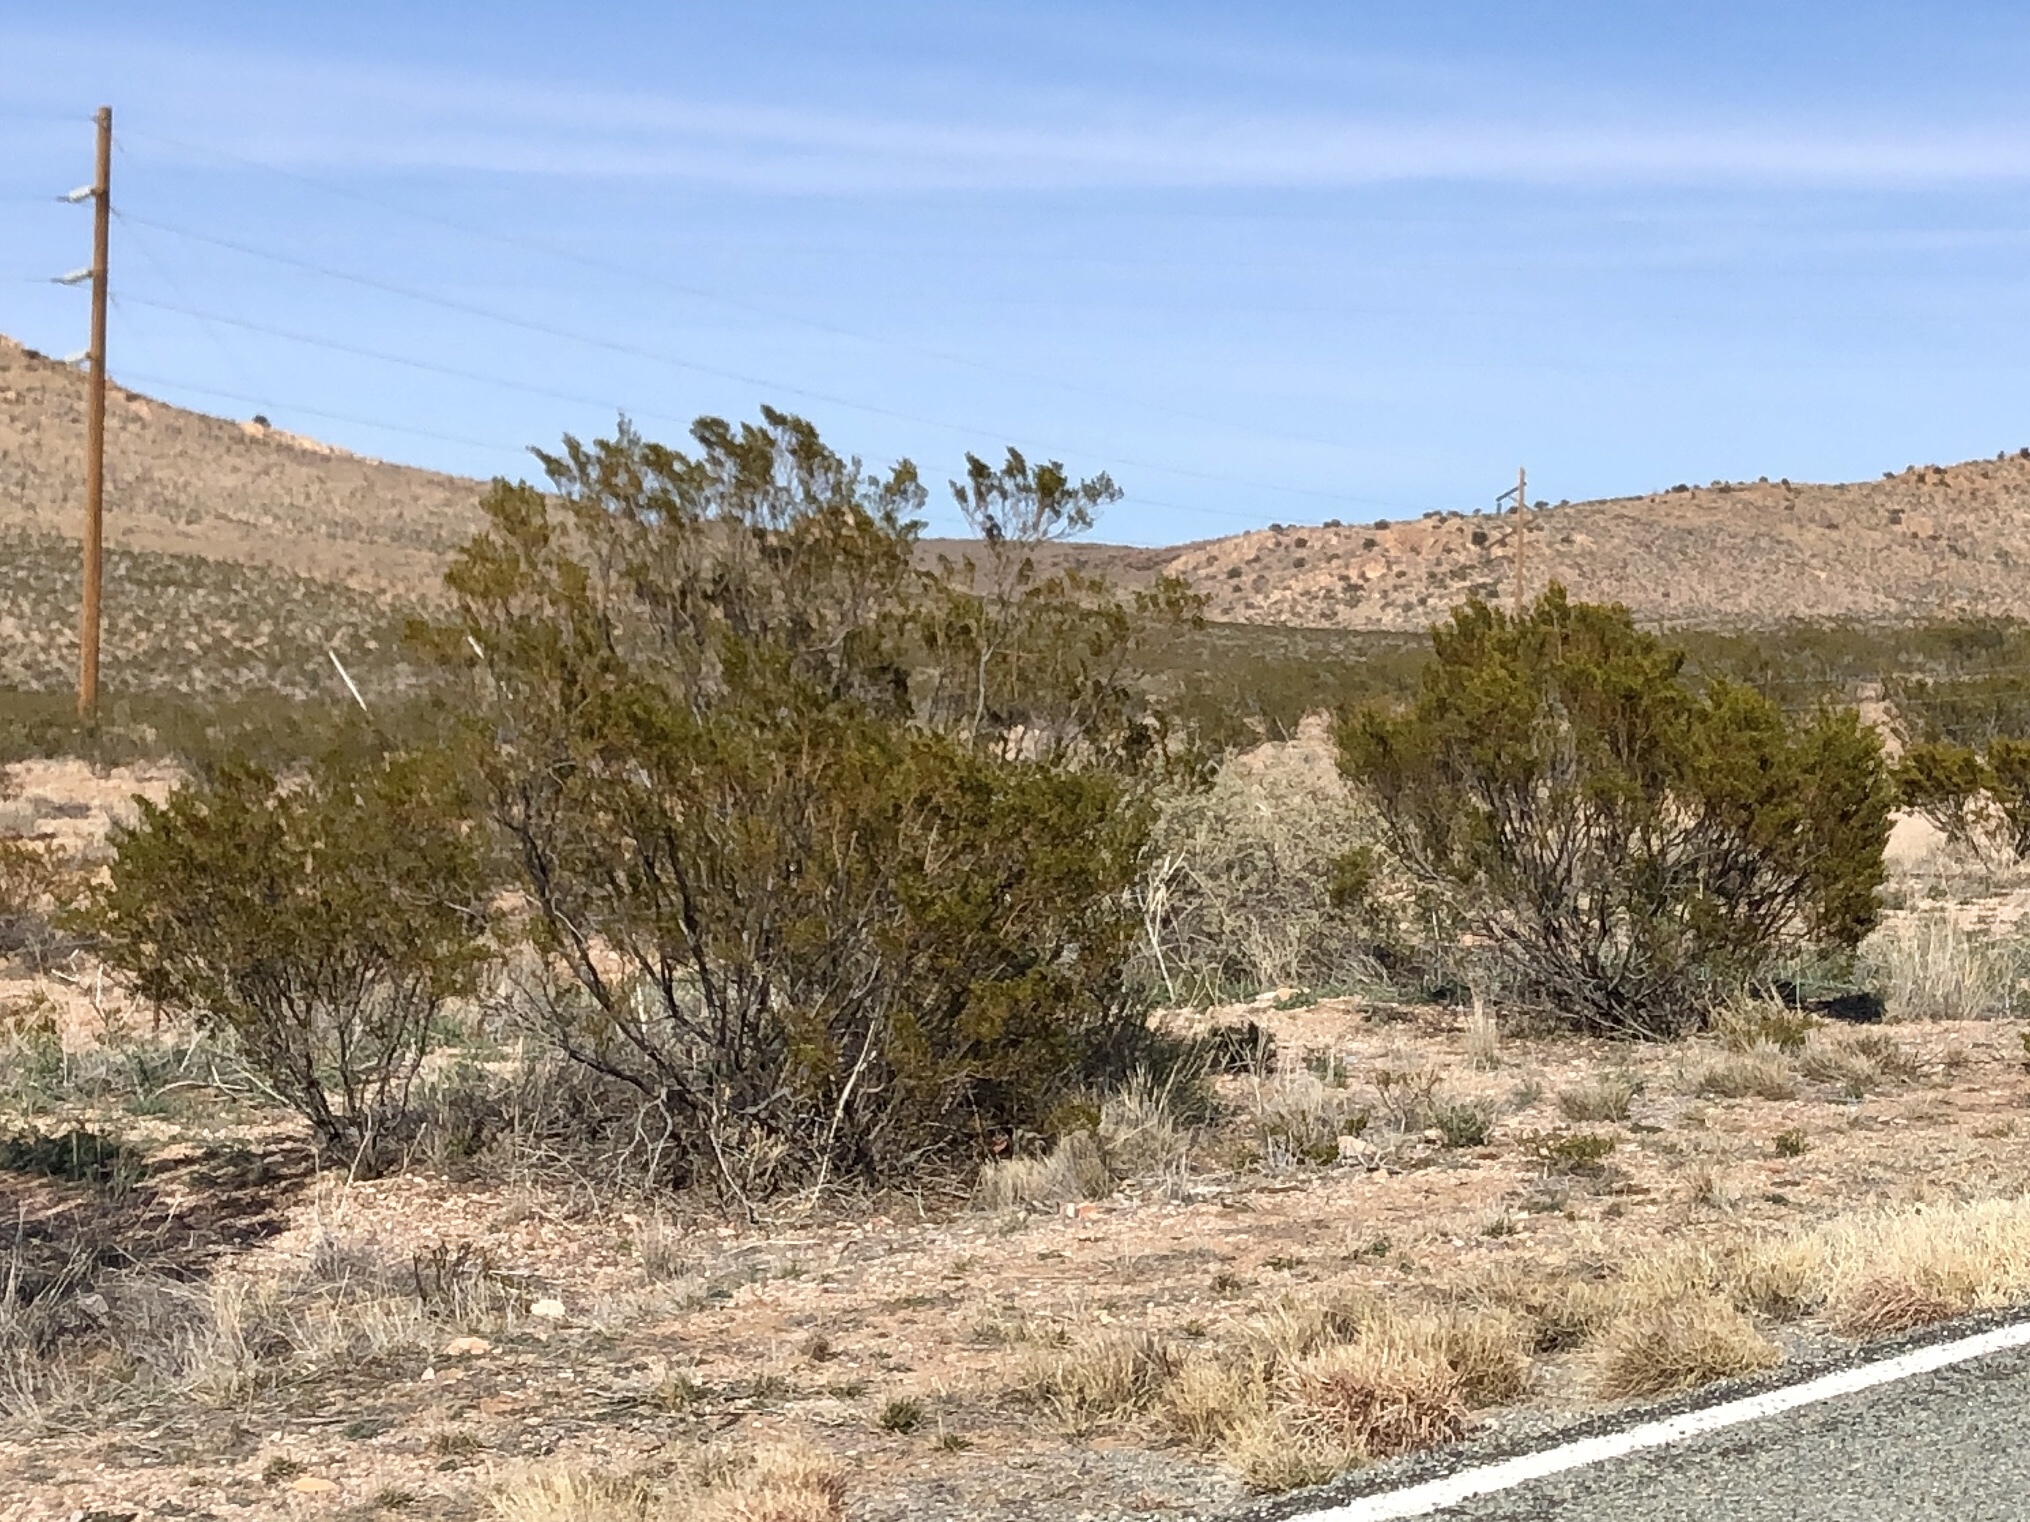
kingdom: Plantae
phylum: Tracheophyta
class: Magnoliopsida
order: Zygophyllales
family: Zygophyllaceae
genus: Larrea
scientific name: Larrea tridentata
